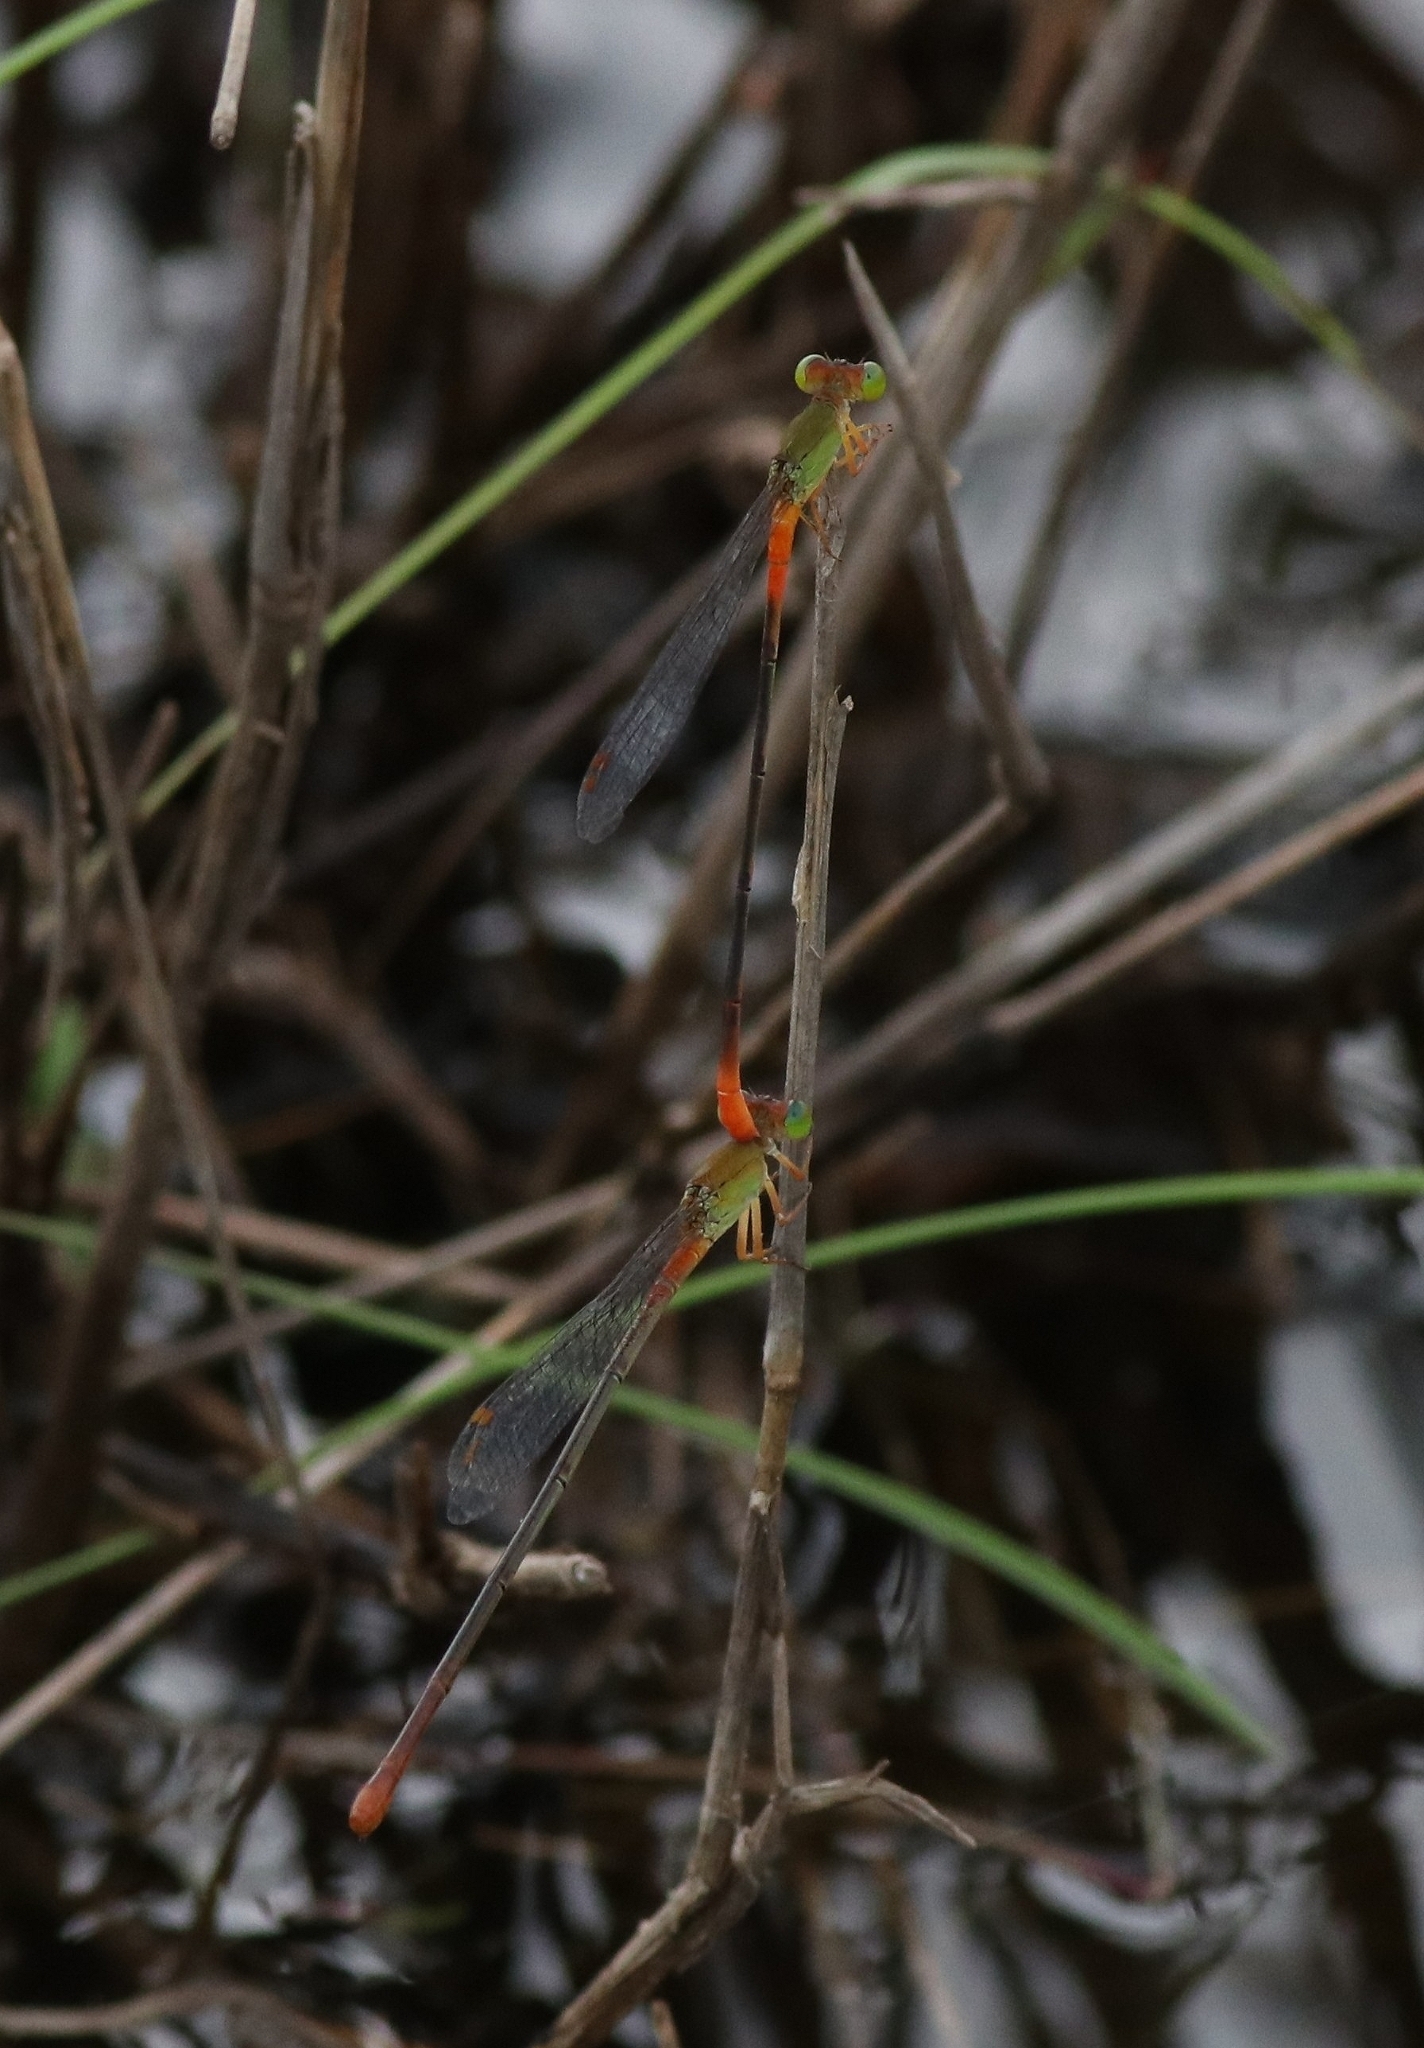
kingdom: Animalia
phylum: Arthropoda
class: Insecta
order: Odonata
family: Coenagrionidae
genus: Ceriagrion
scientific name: Ceriagrion cerinorubellum
